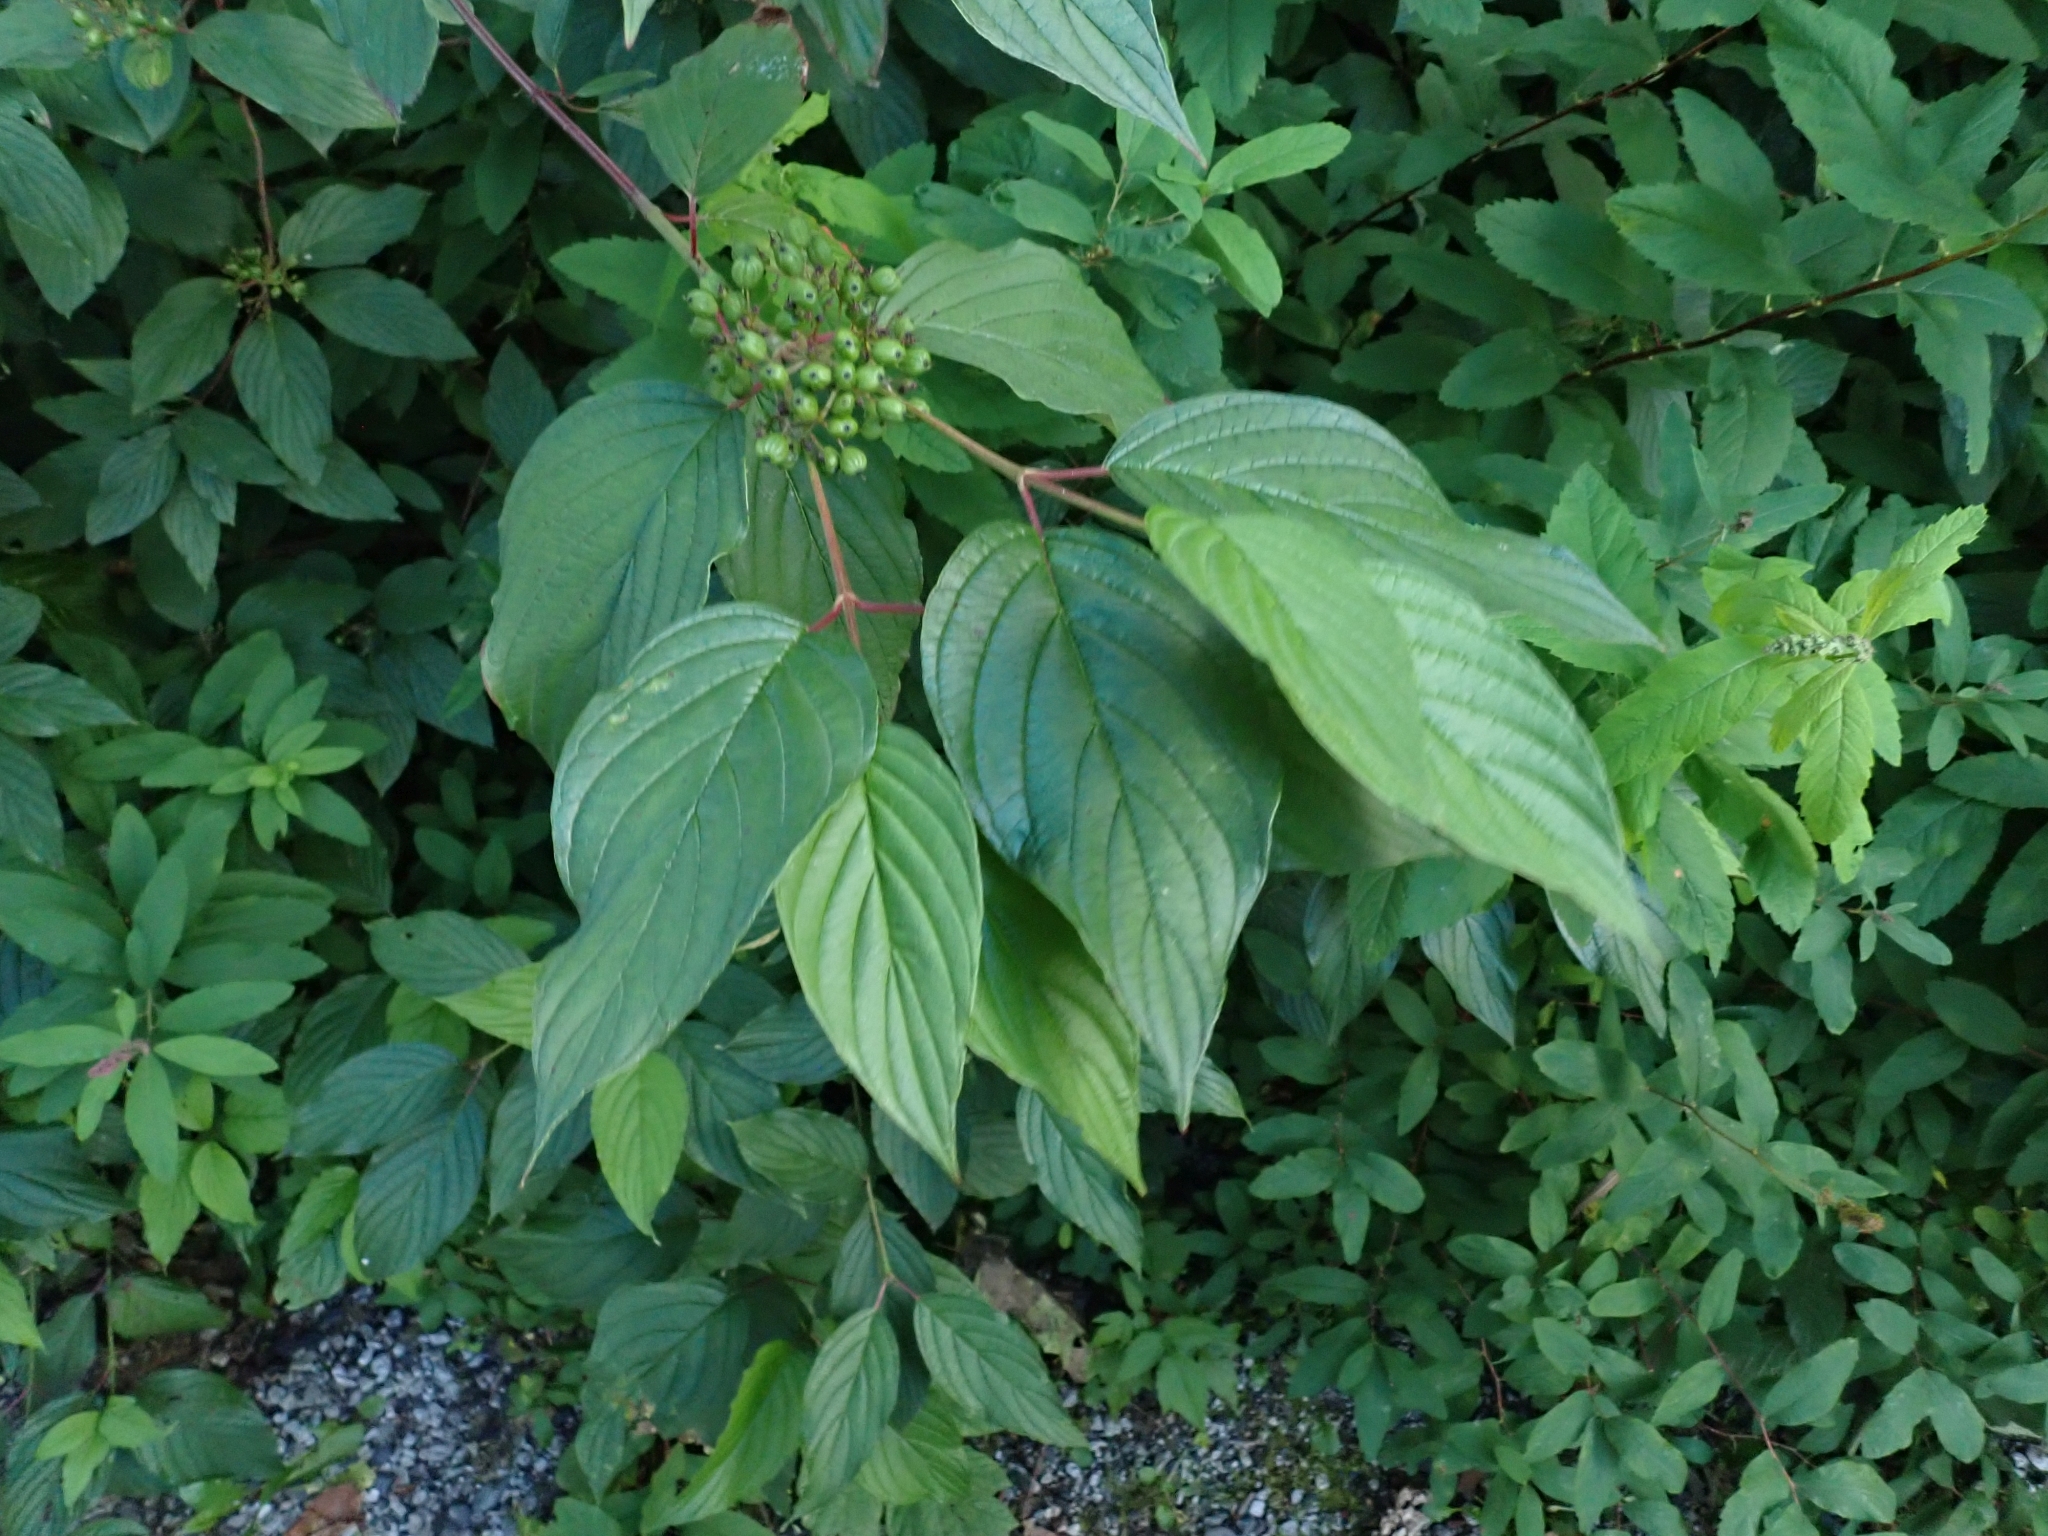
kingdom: Plantae
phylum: Tracheophyta
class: Magnoliopsida
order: Cornales
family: Cornaceae
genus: Cornus
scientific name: Cornus sericea
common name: Red-osier dogwood
